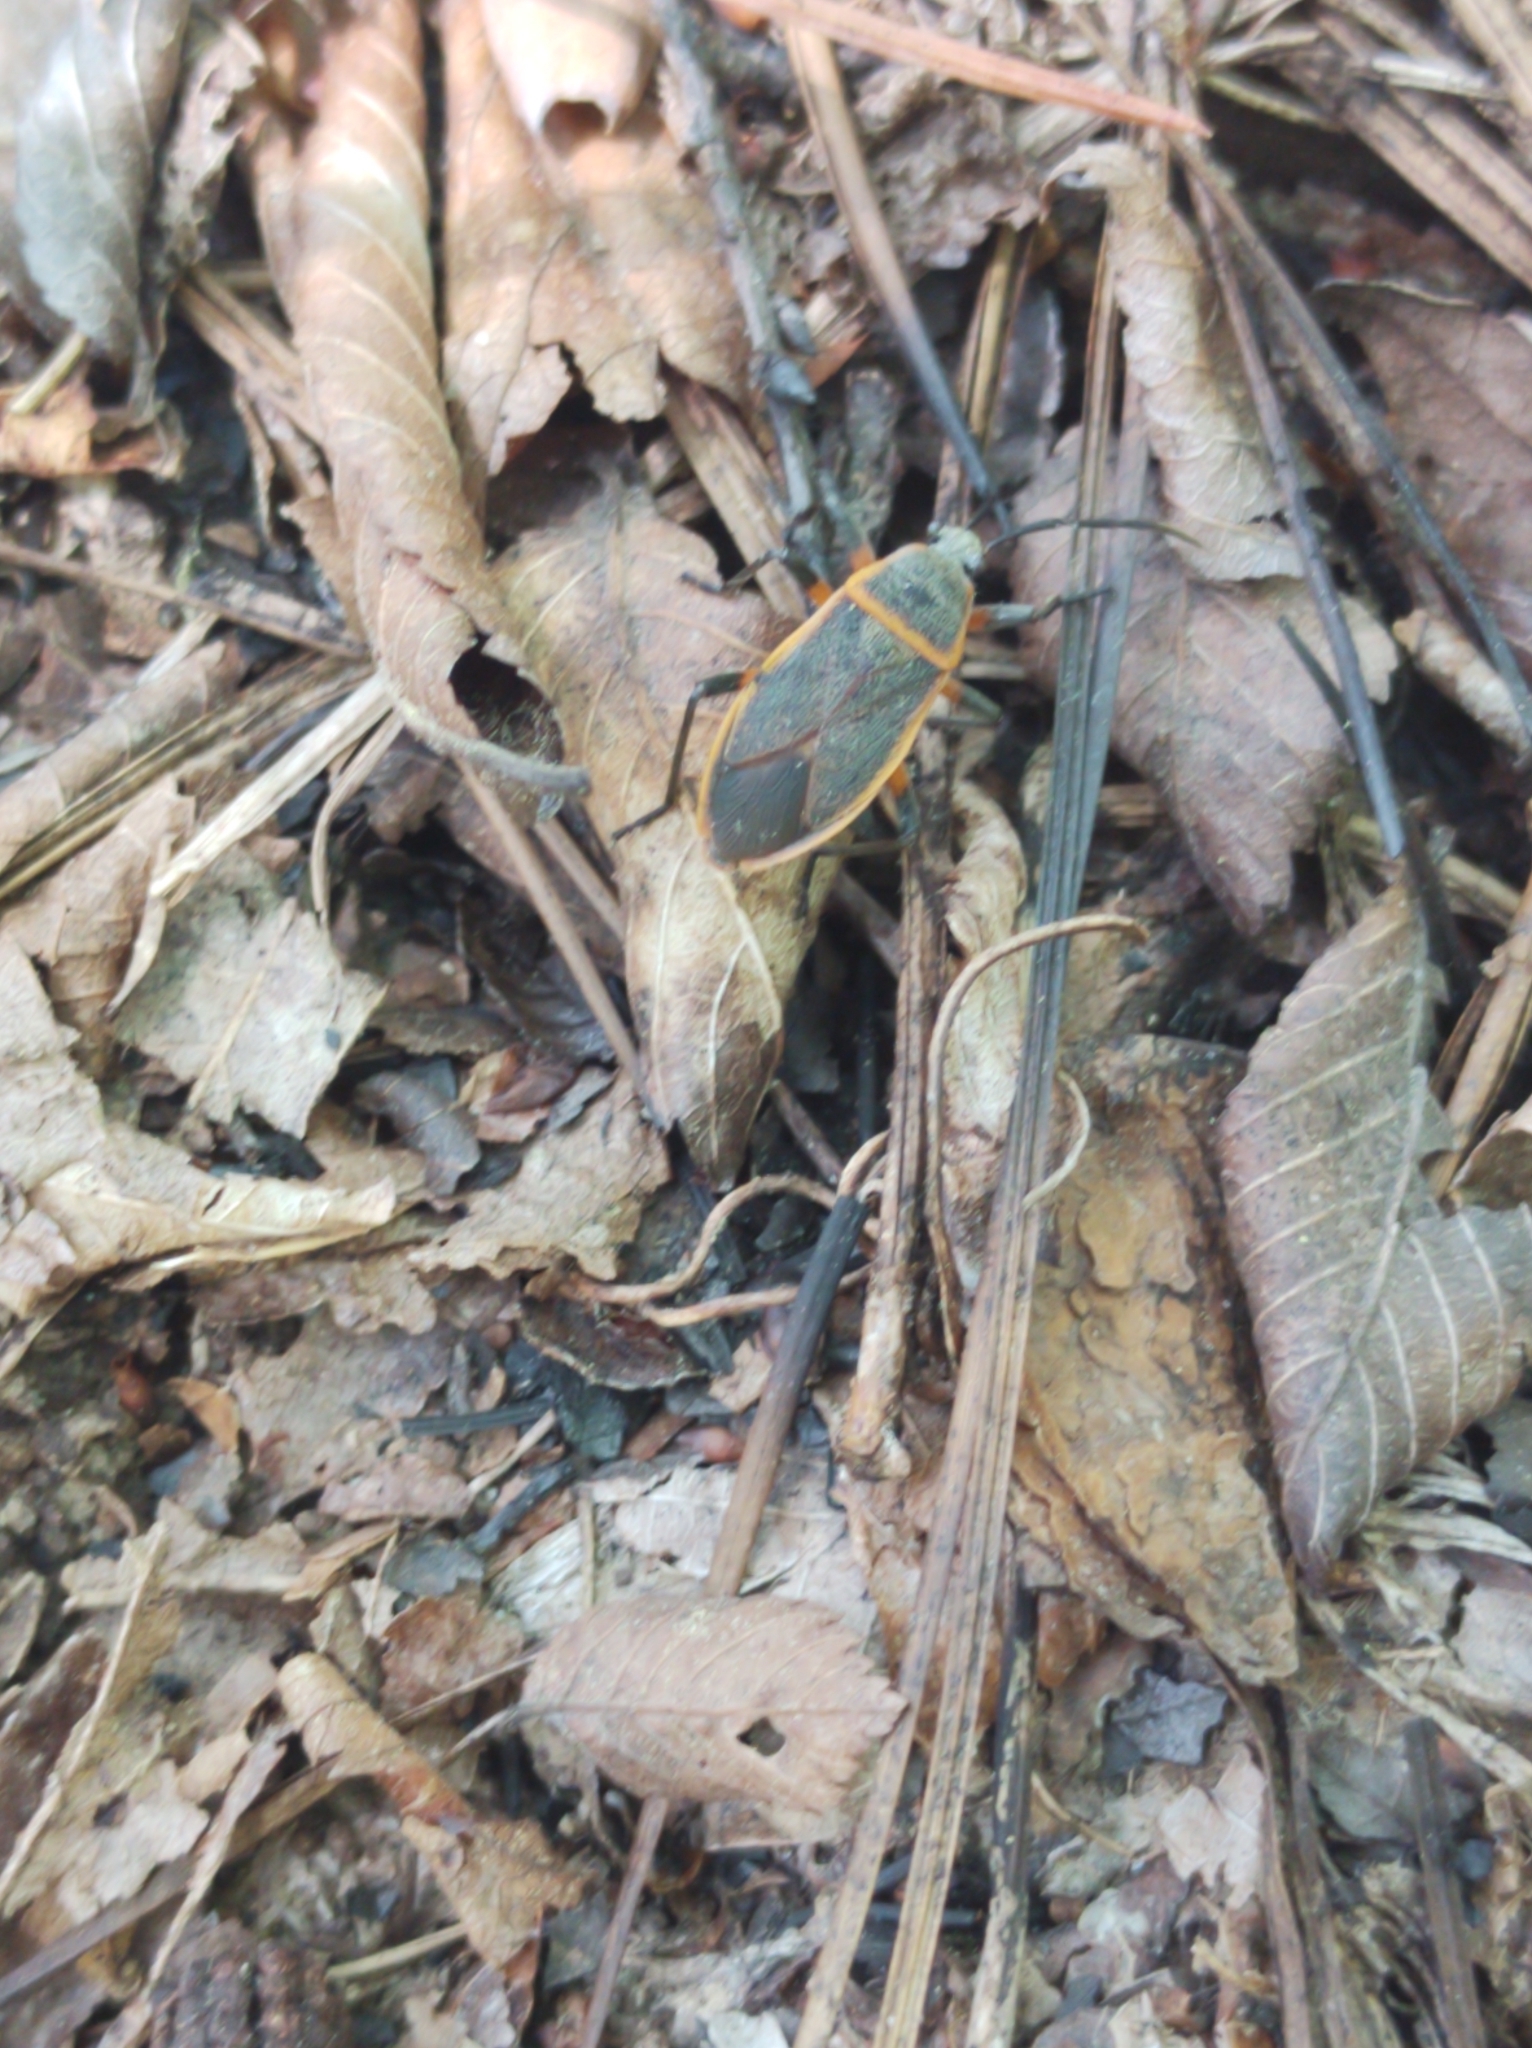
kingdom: Animalia
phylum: Arthropoda
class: Insecta
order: Hemiptera
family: Largidae
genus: Largus
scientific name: Largus succinctus
